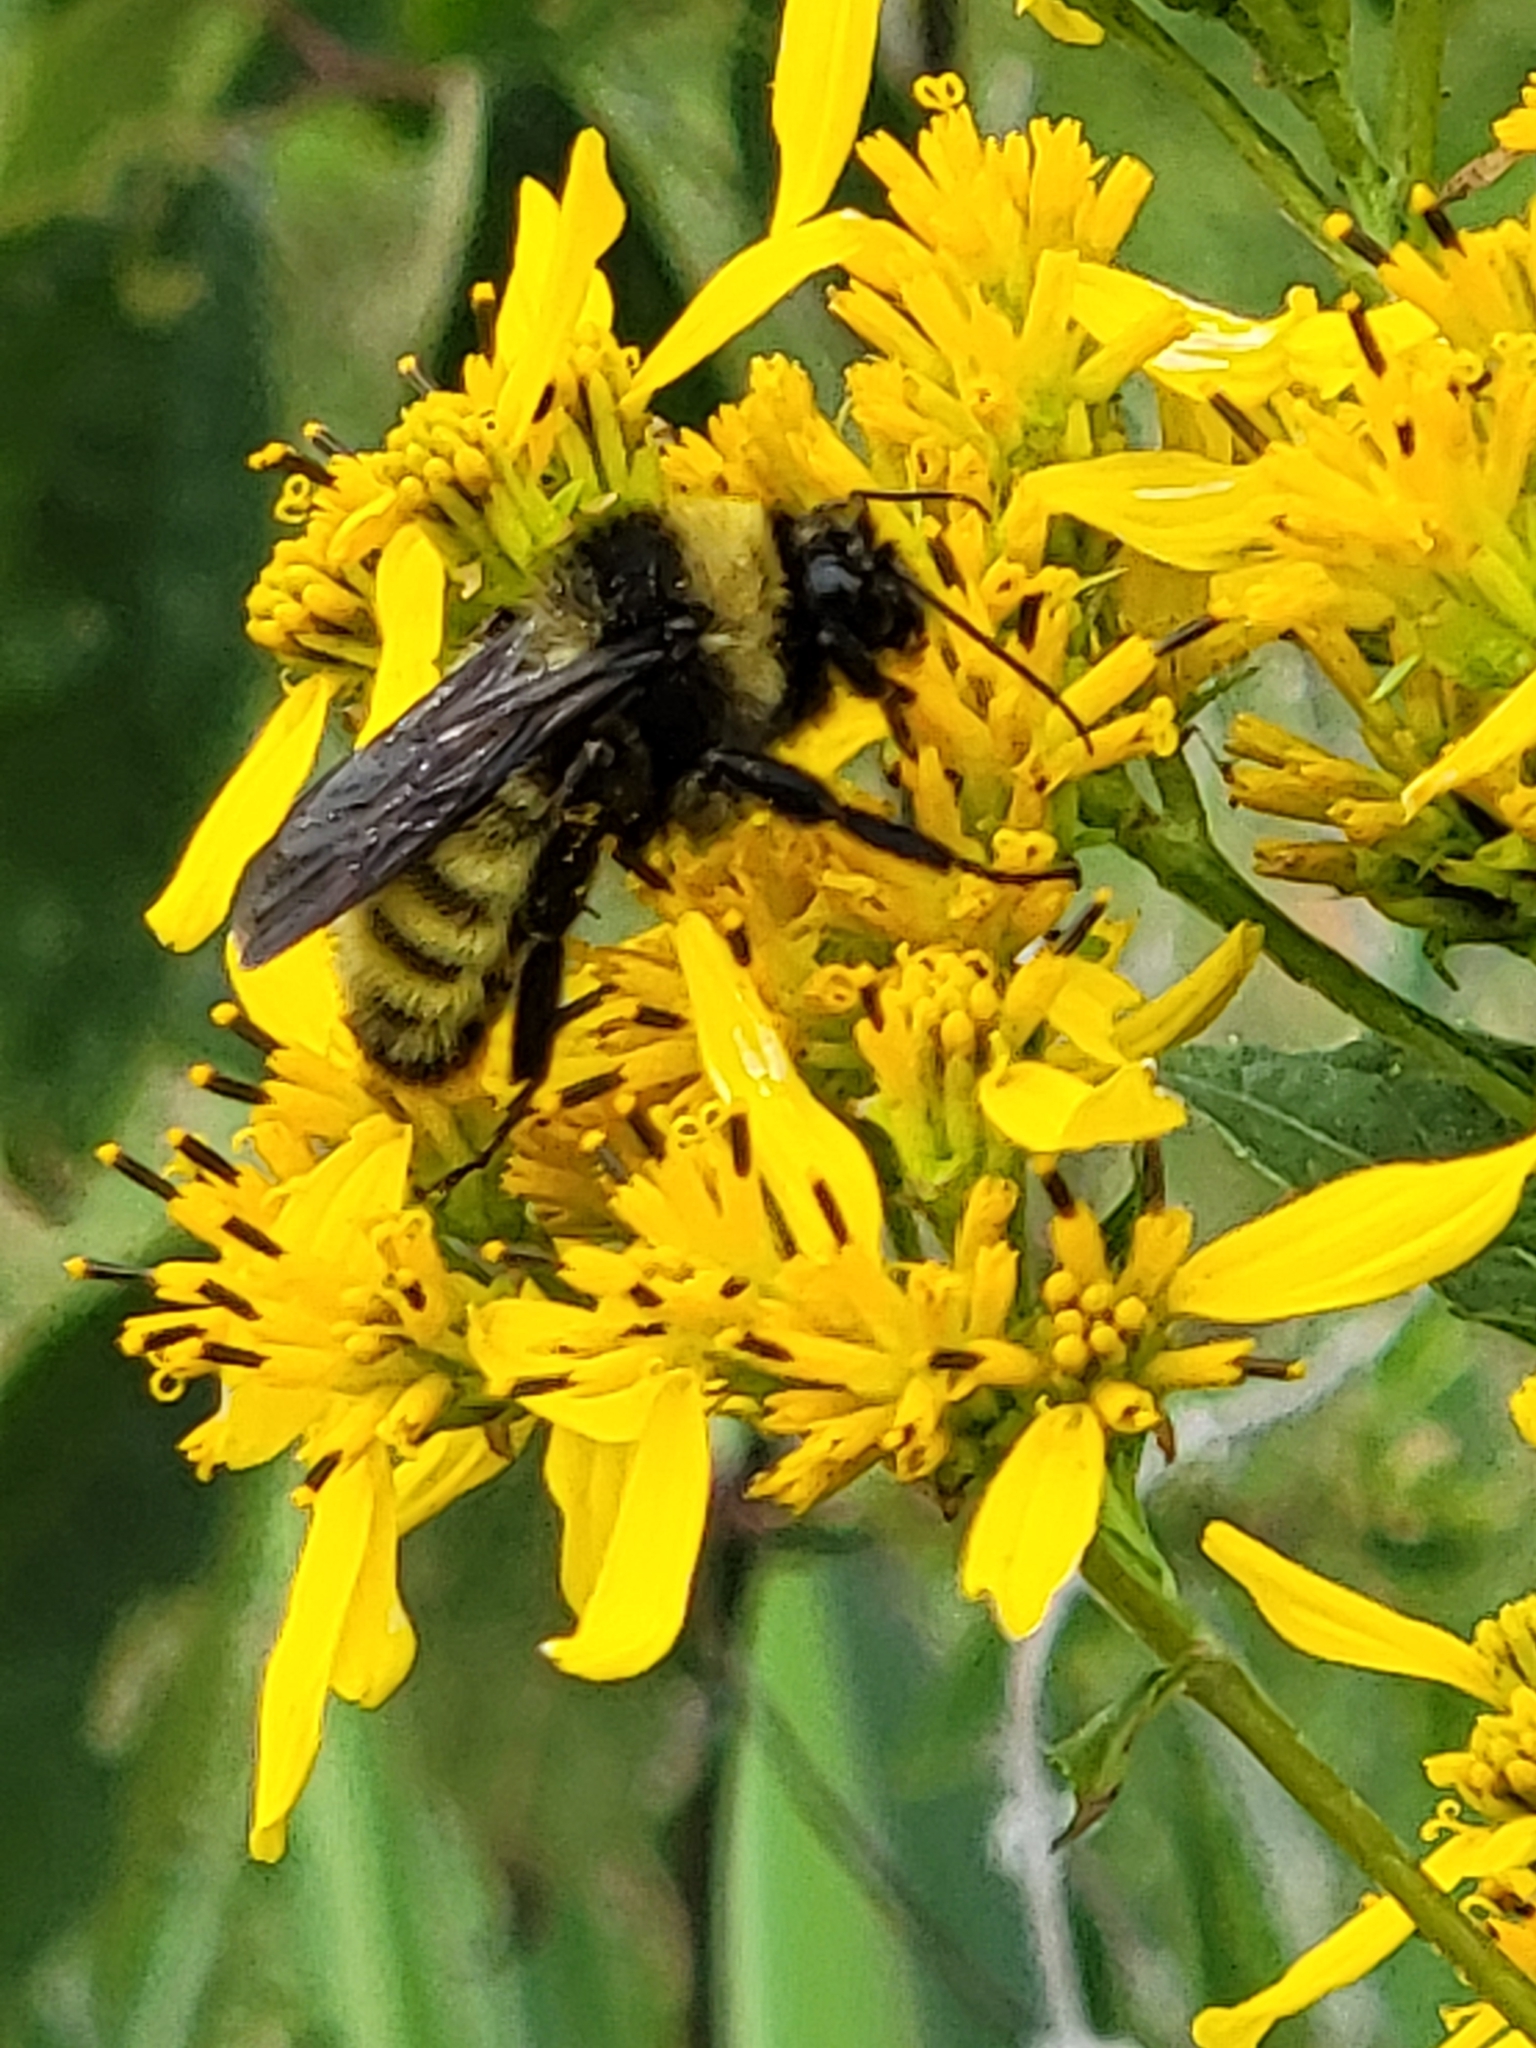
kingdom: Animalia
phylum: Arthropoda
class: Insecta
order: Hymenoptera
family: Apidae
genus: Bombus
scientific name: Bombus pensylvanicus
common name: Bumble bee
